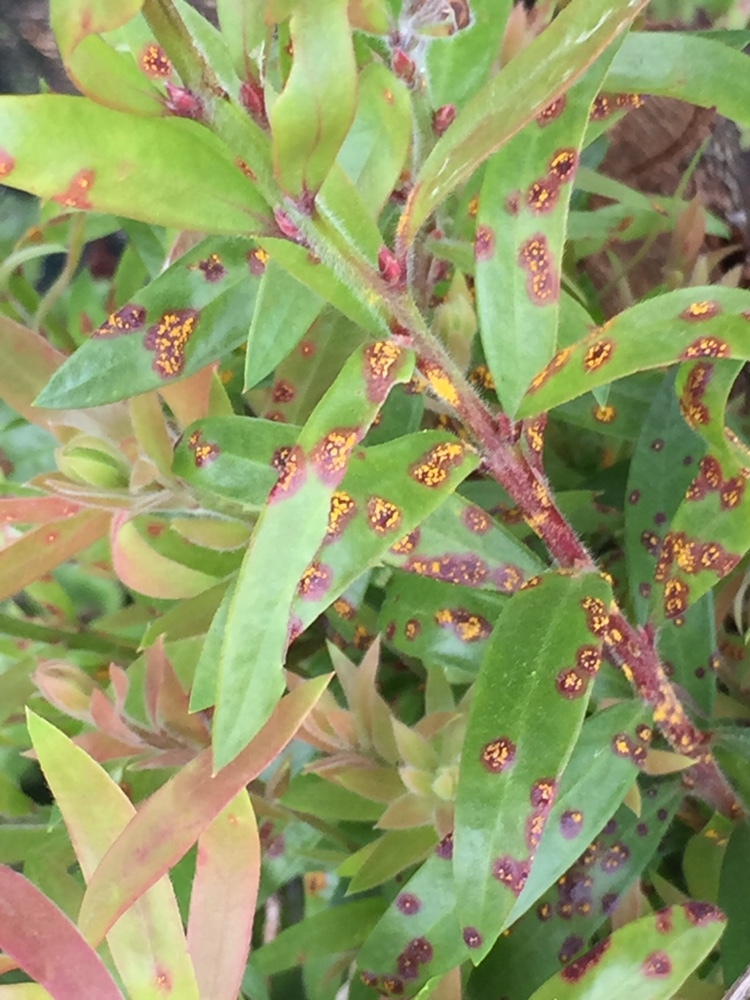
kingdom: Fungi
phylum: Basidiomycota
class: Pucciniomycetes
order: Pucciniales
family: Sphaerophragmiaceae
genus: Austropuccinia
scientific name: Austropuccinia psidii
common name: Myrtle rust
